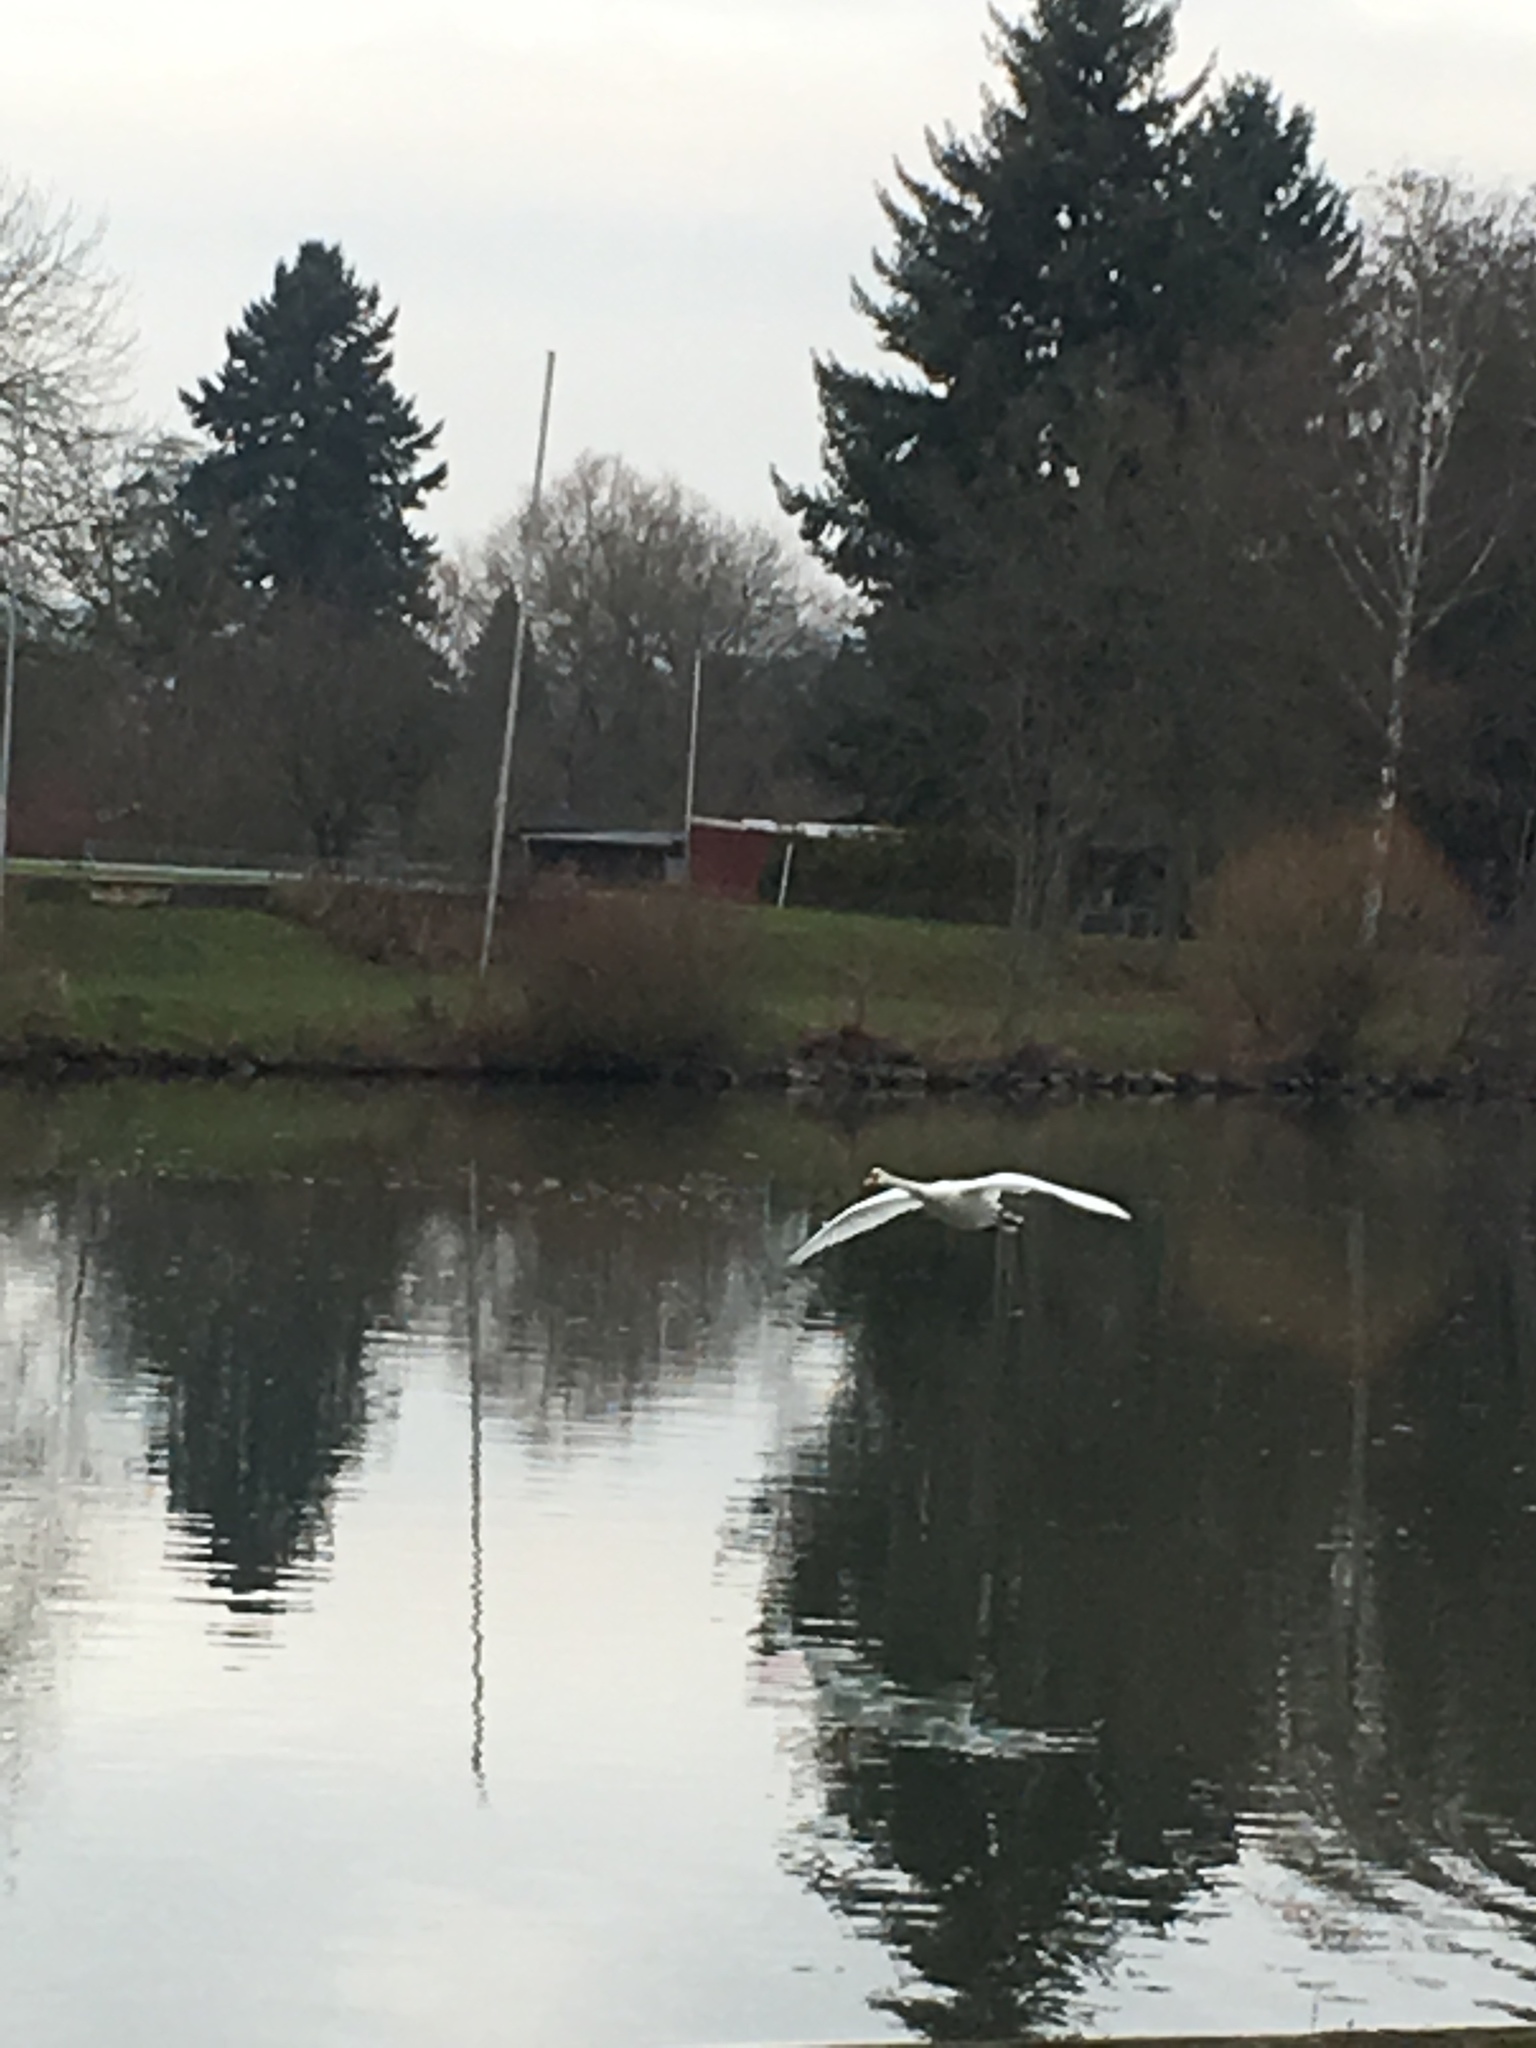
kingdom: Animalia
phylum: Chordata
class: Aves
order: Anseriformes
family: Anatidae
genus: Cygnus
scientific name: Cygnus olor
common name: Mute swan
